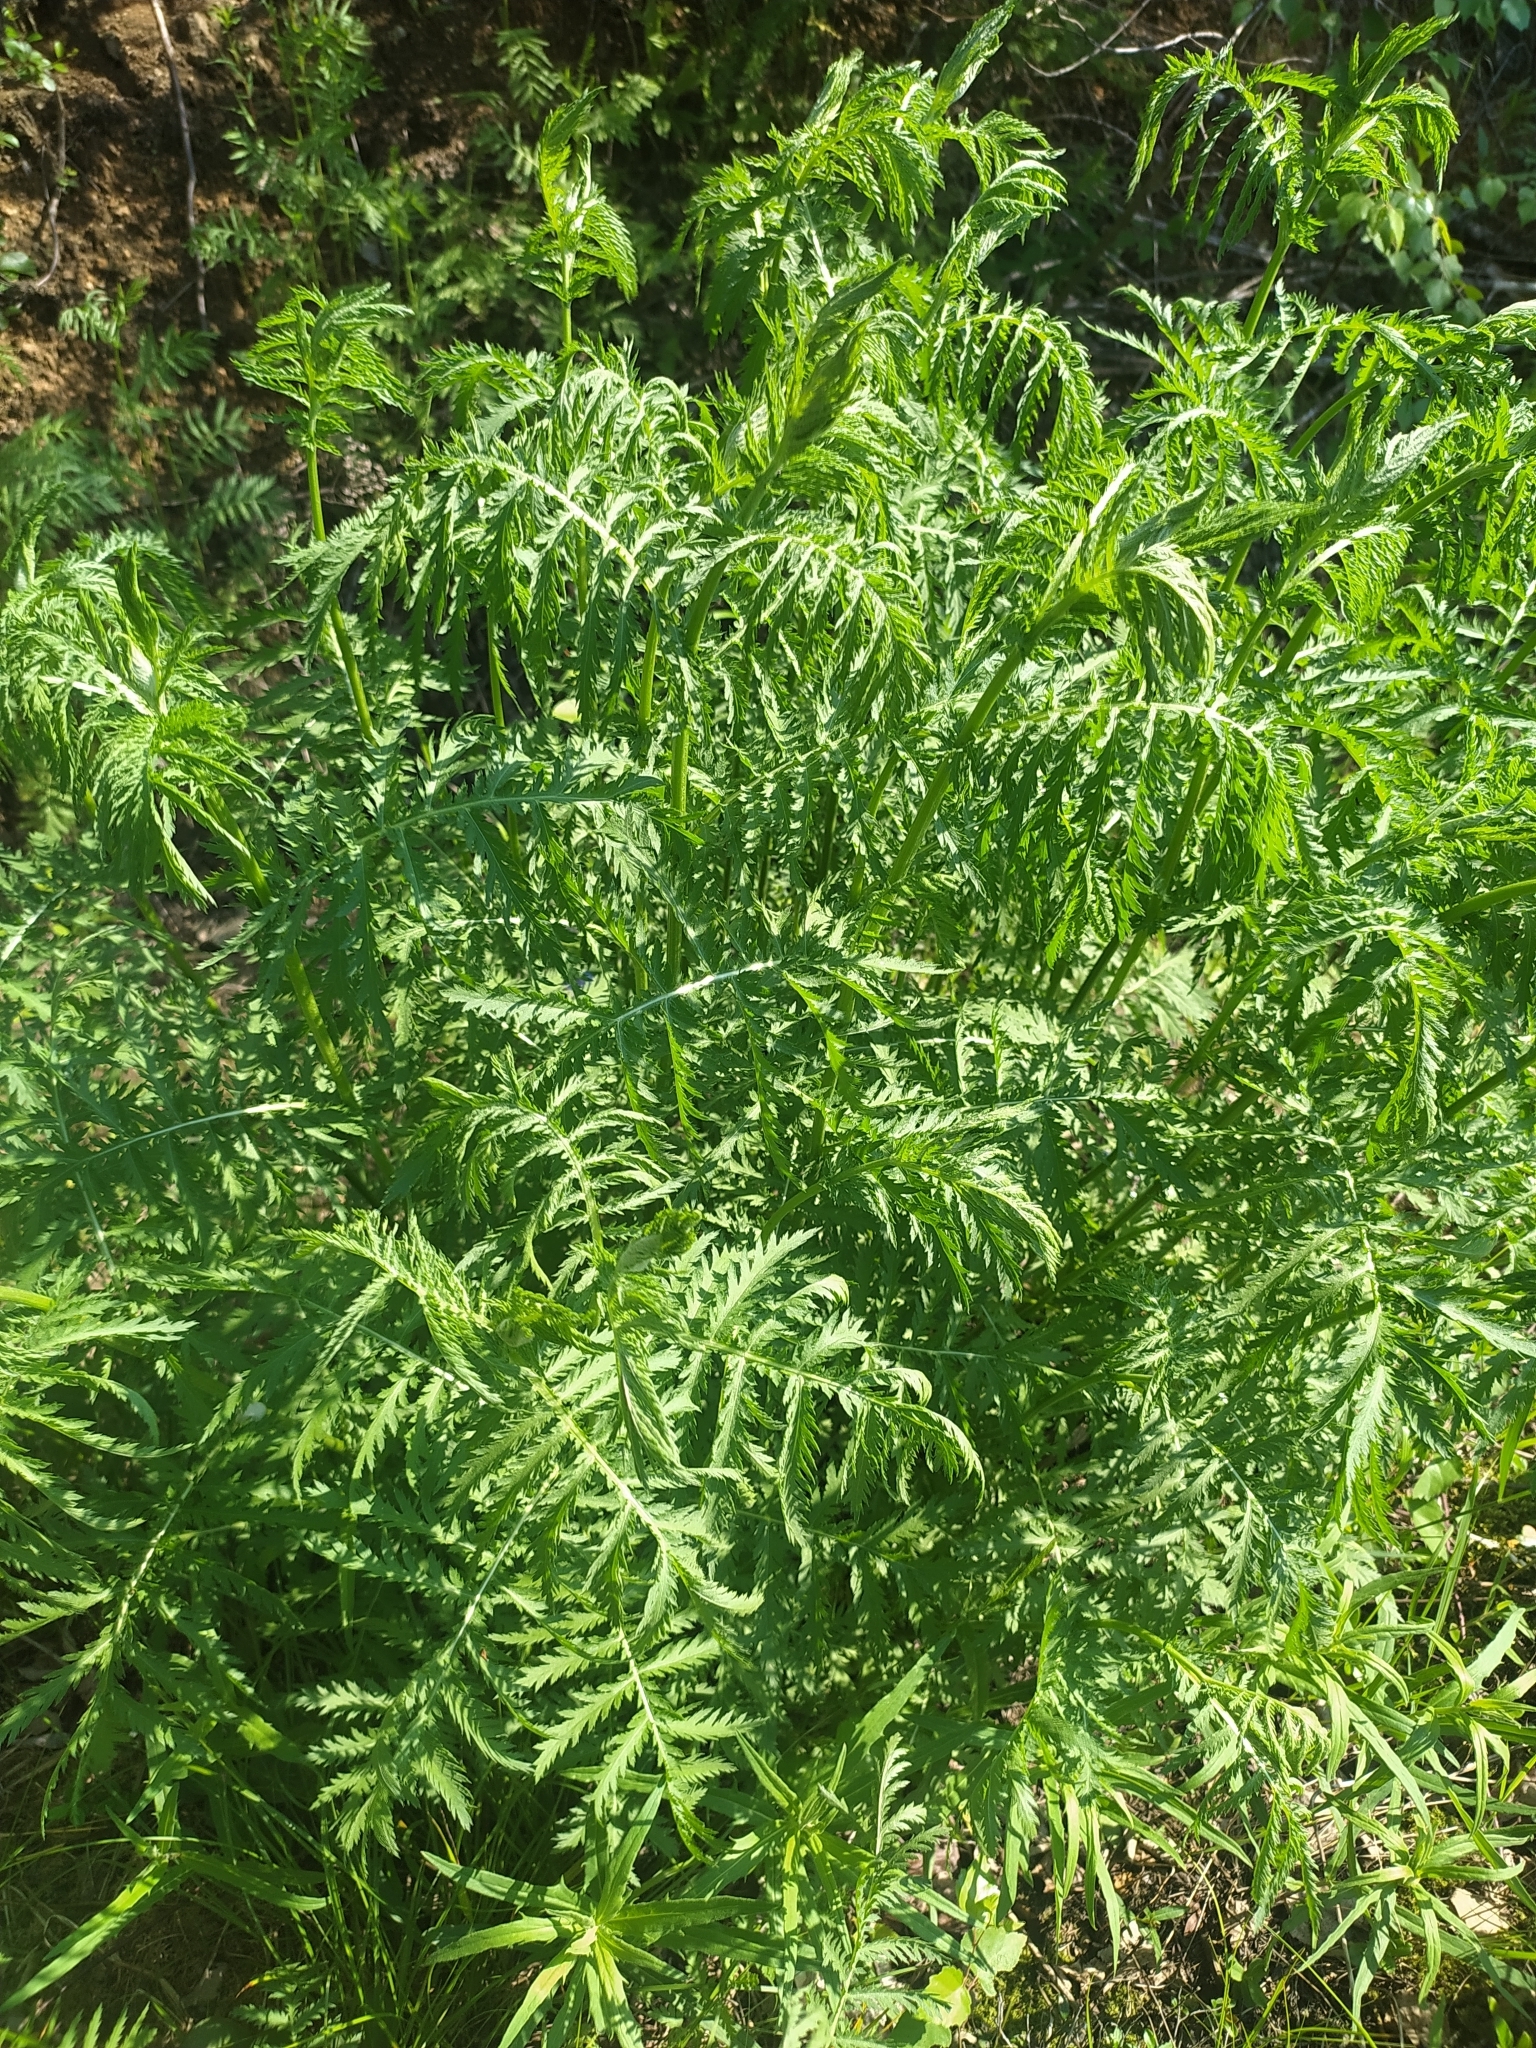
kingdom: Plantae
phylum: Tracheophyta
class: Magnoliopsida
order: Asterales
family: Asteraceae
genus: Tanacetum
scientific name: Tanacetum vulgare
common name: Common tansy
